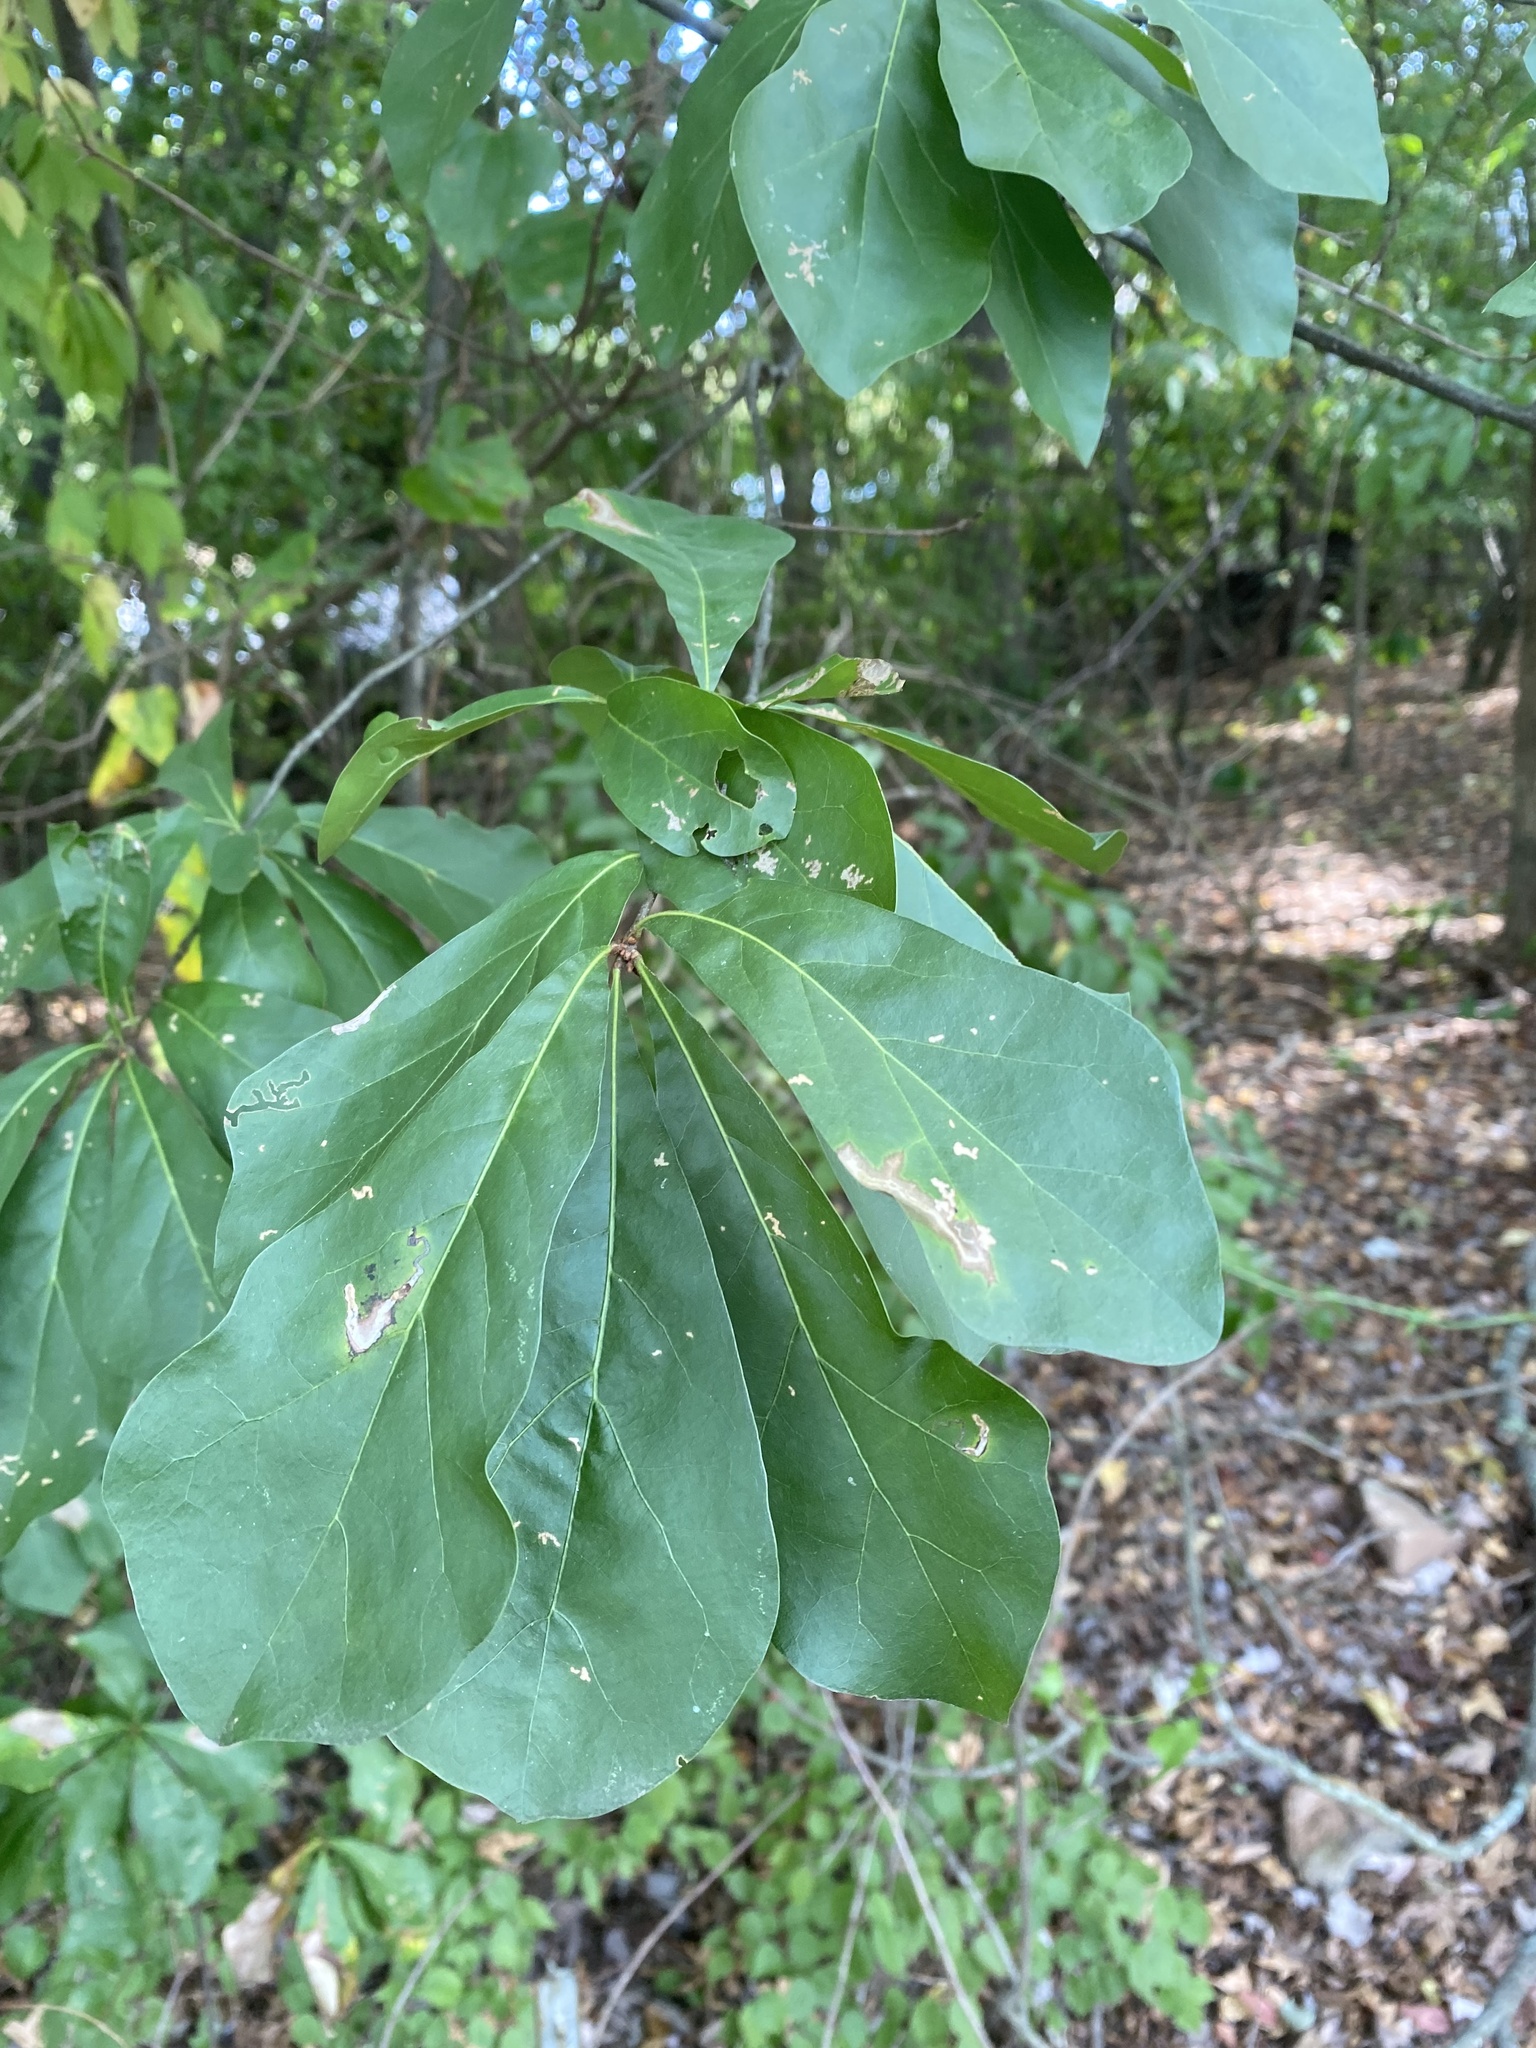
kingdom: Plantae
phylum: Tracheophyta
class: Magnoliopsida
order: Fagales
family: Fagaceae
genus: Quercus
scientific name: Quercus nigra
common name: Water oak
